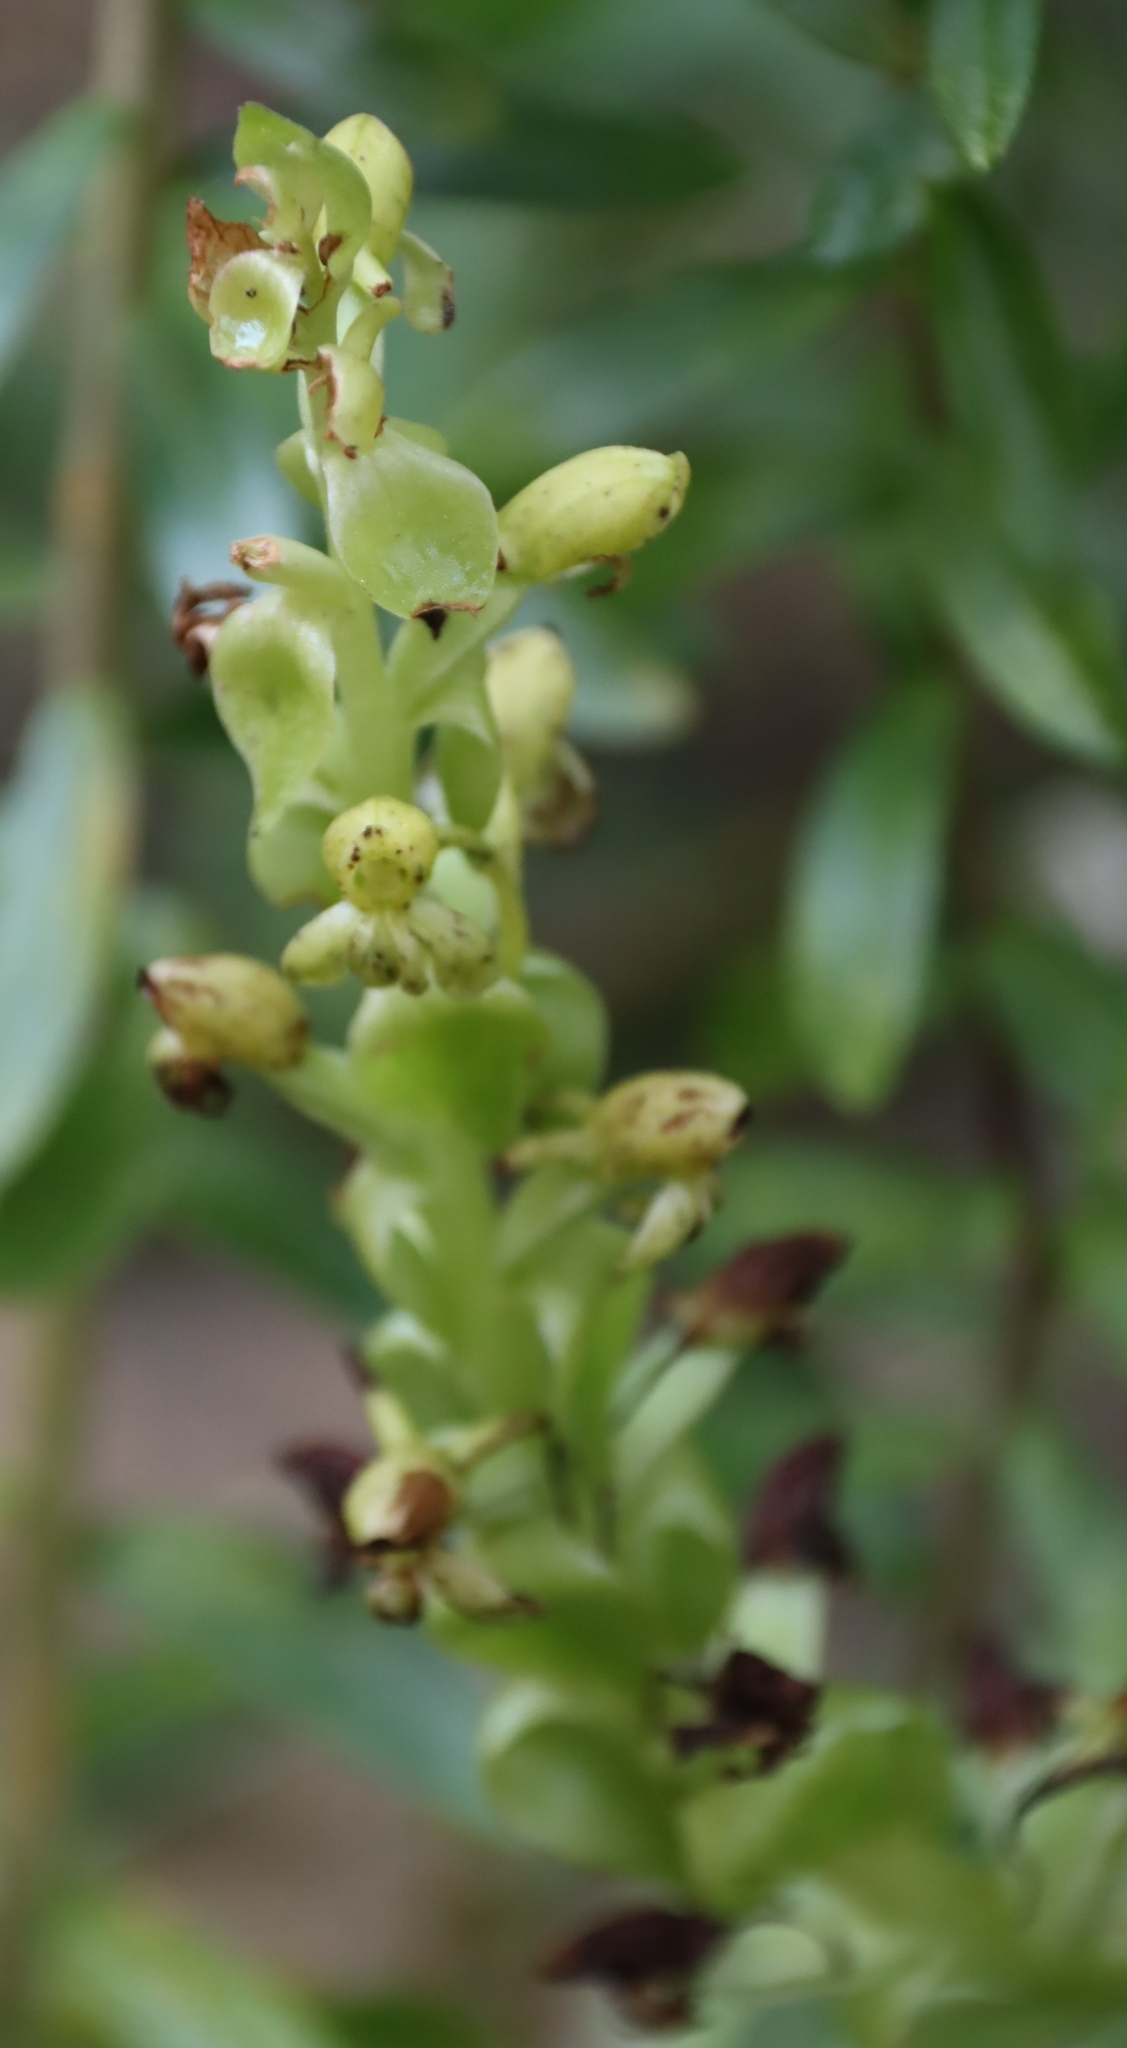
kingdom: Plantae
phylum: Tracheophyta
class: Liliopsida
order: Asparagales
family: Orchidaceae
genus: Satyrium
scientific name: Satyrium odorum
